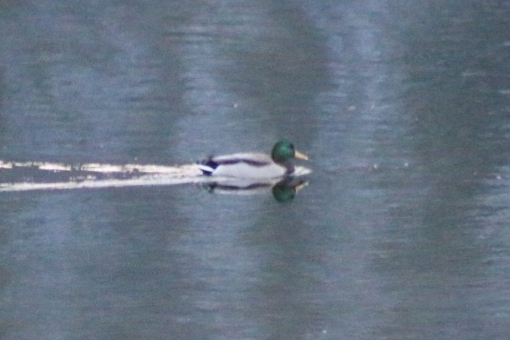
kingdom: Animalia
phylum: Chordata
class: Aves
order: Anseriformes
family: Anatidae
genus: Anas
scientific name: Anas platyrhynchos
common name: Mallard
